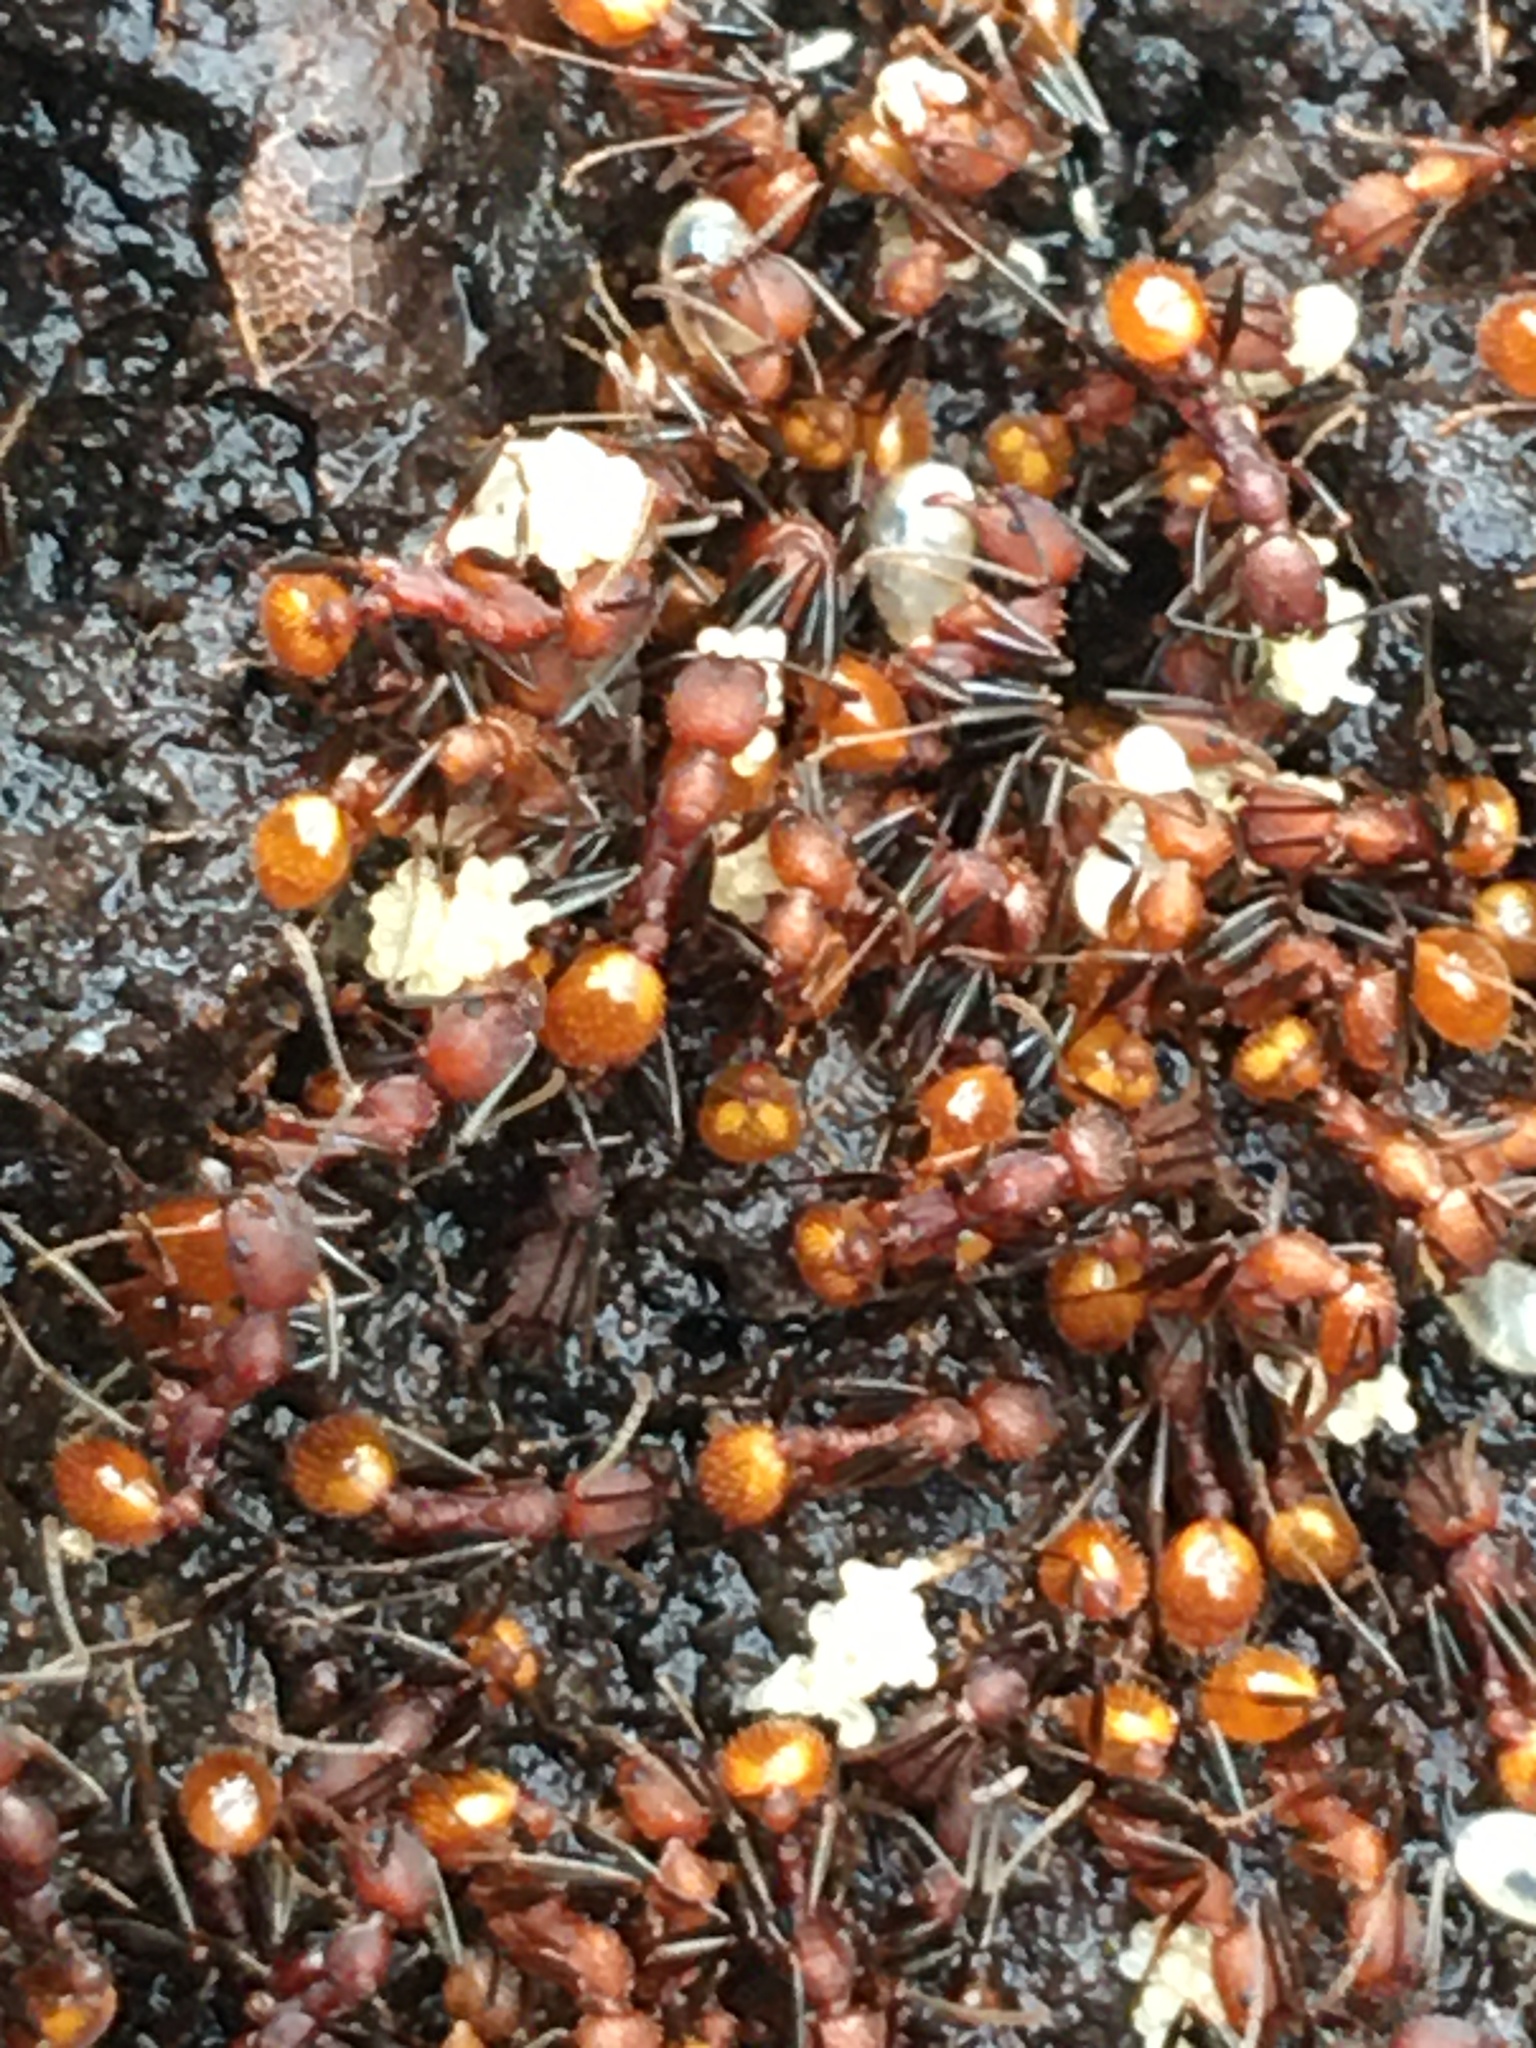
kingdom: Animalia
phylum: Arthropoda
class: Insecta
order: Hymenoptera
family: Formicidae
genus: Aphaenogaster
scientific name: Aphaenogaster lamellidens
